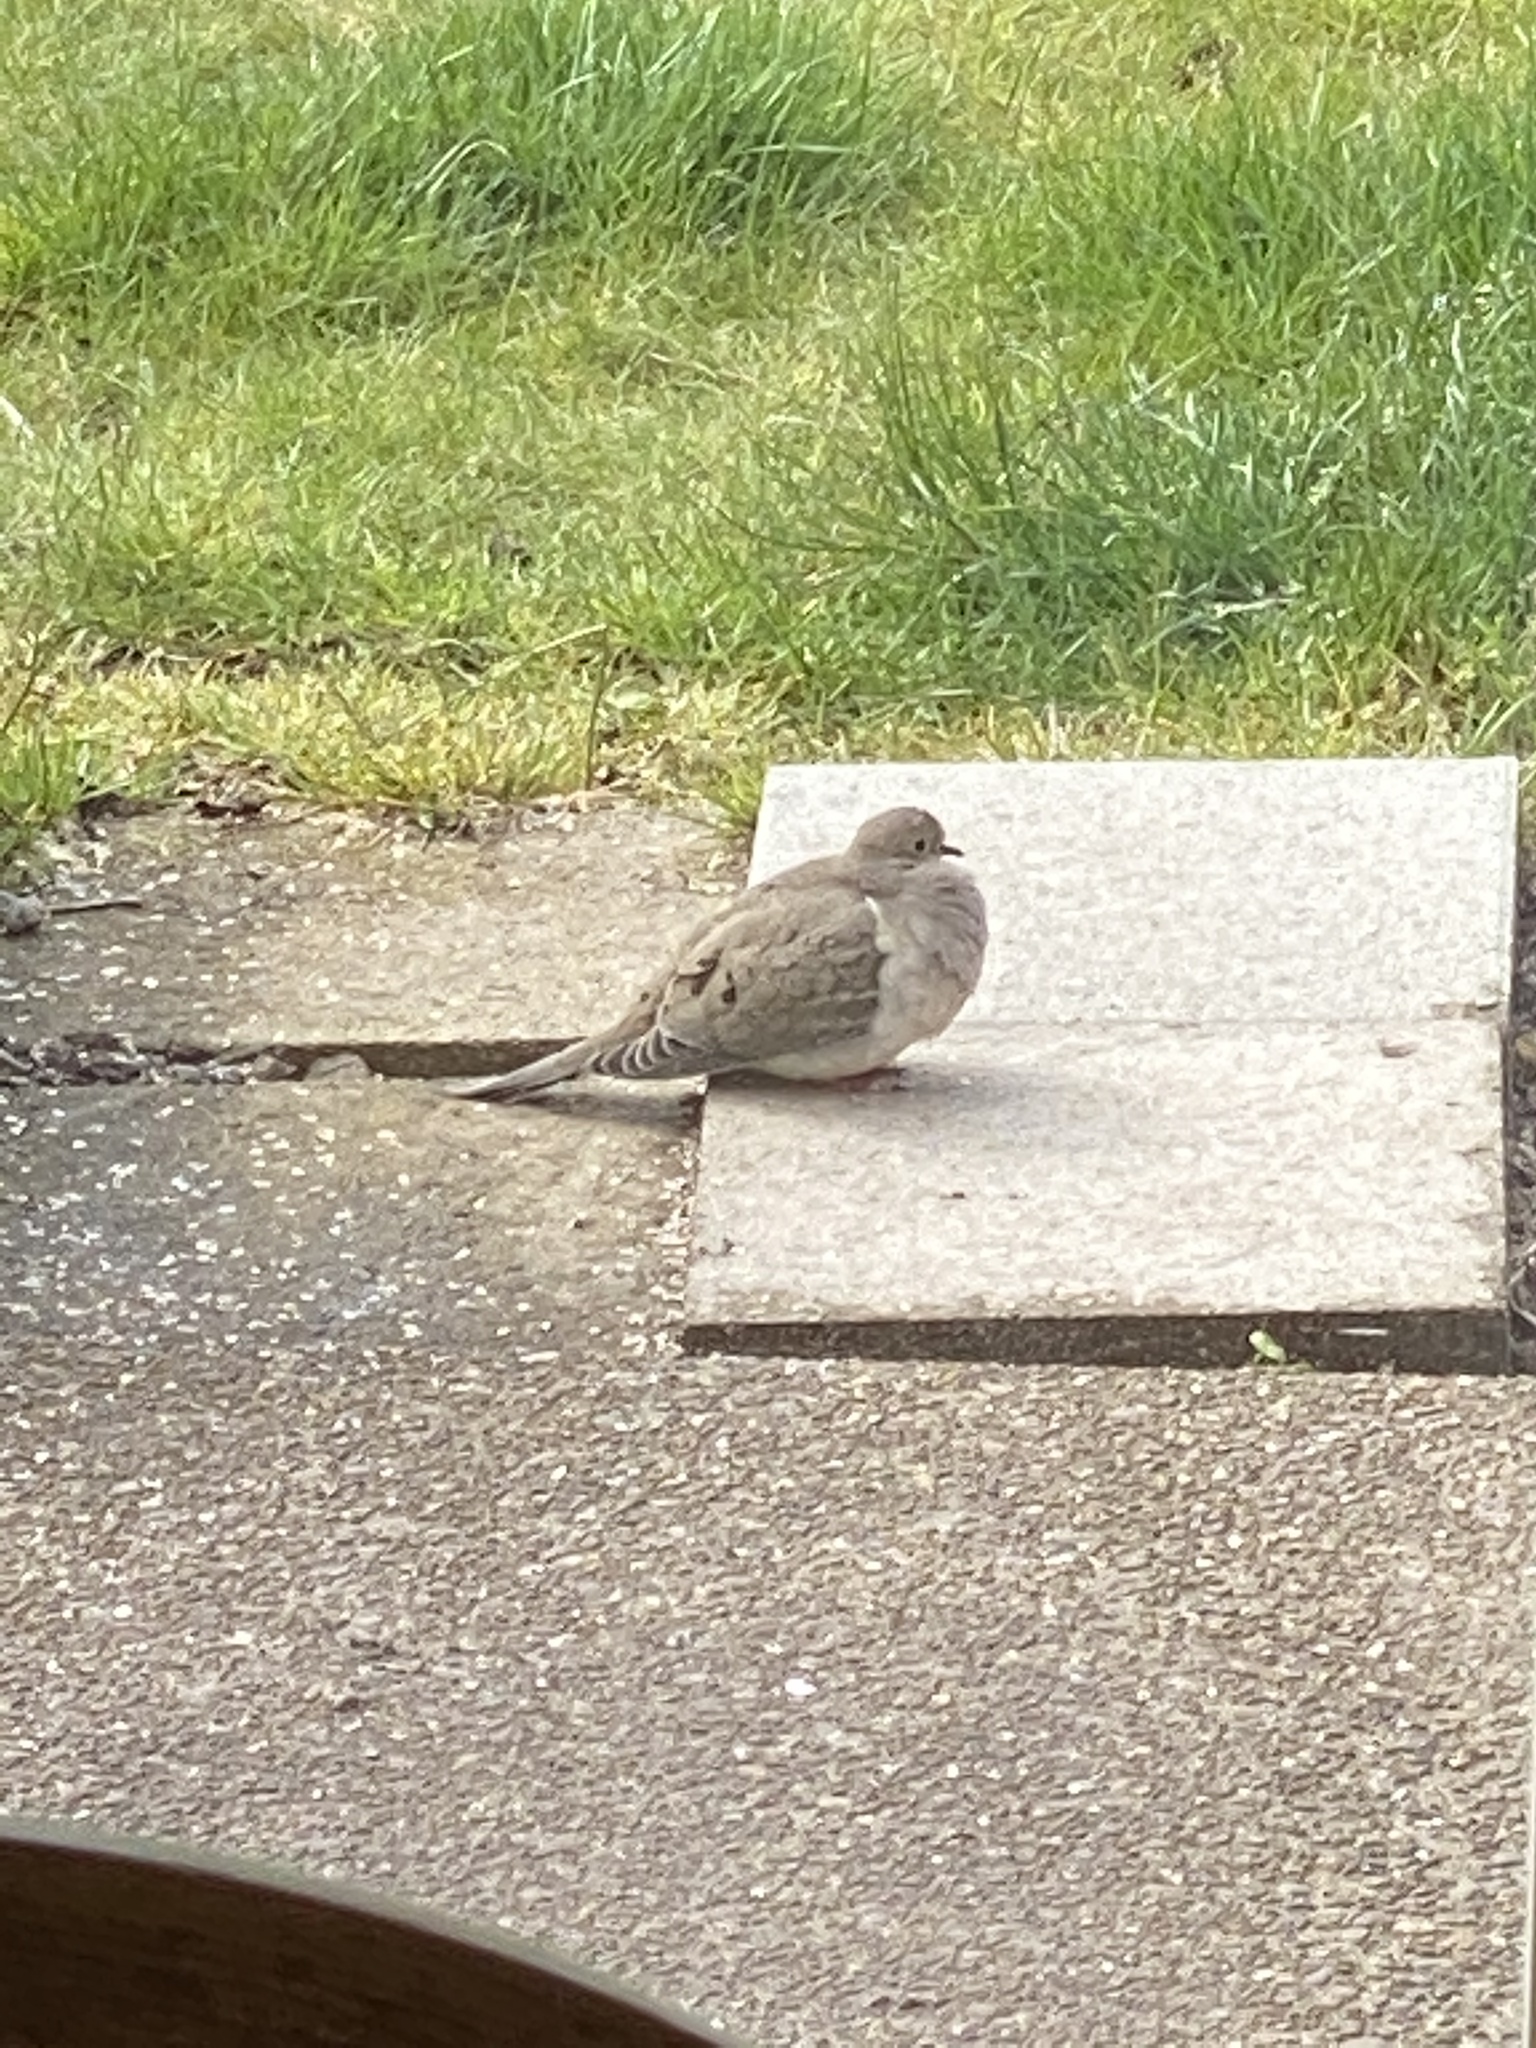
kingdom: Animalia
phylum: Chordata
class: Aves
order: Columbiformes
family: Columbidae
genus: Zenaida
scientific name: Zenaida macroura
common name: Mourning dove
